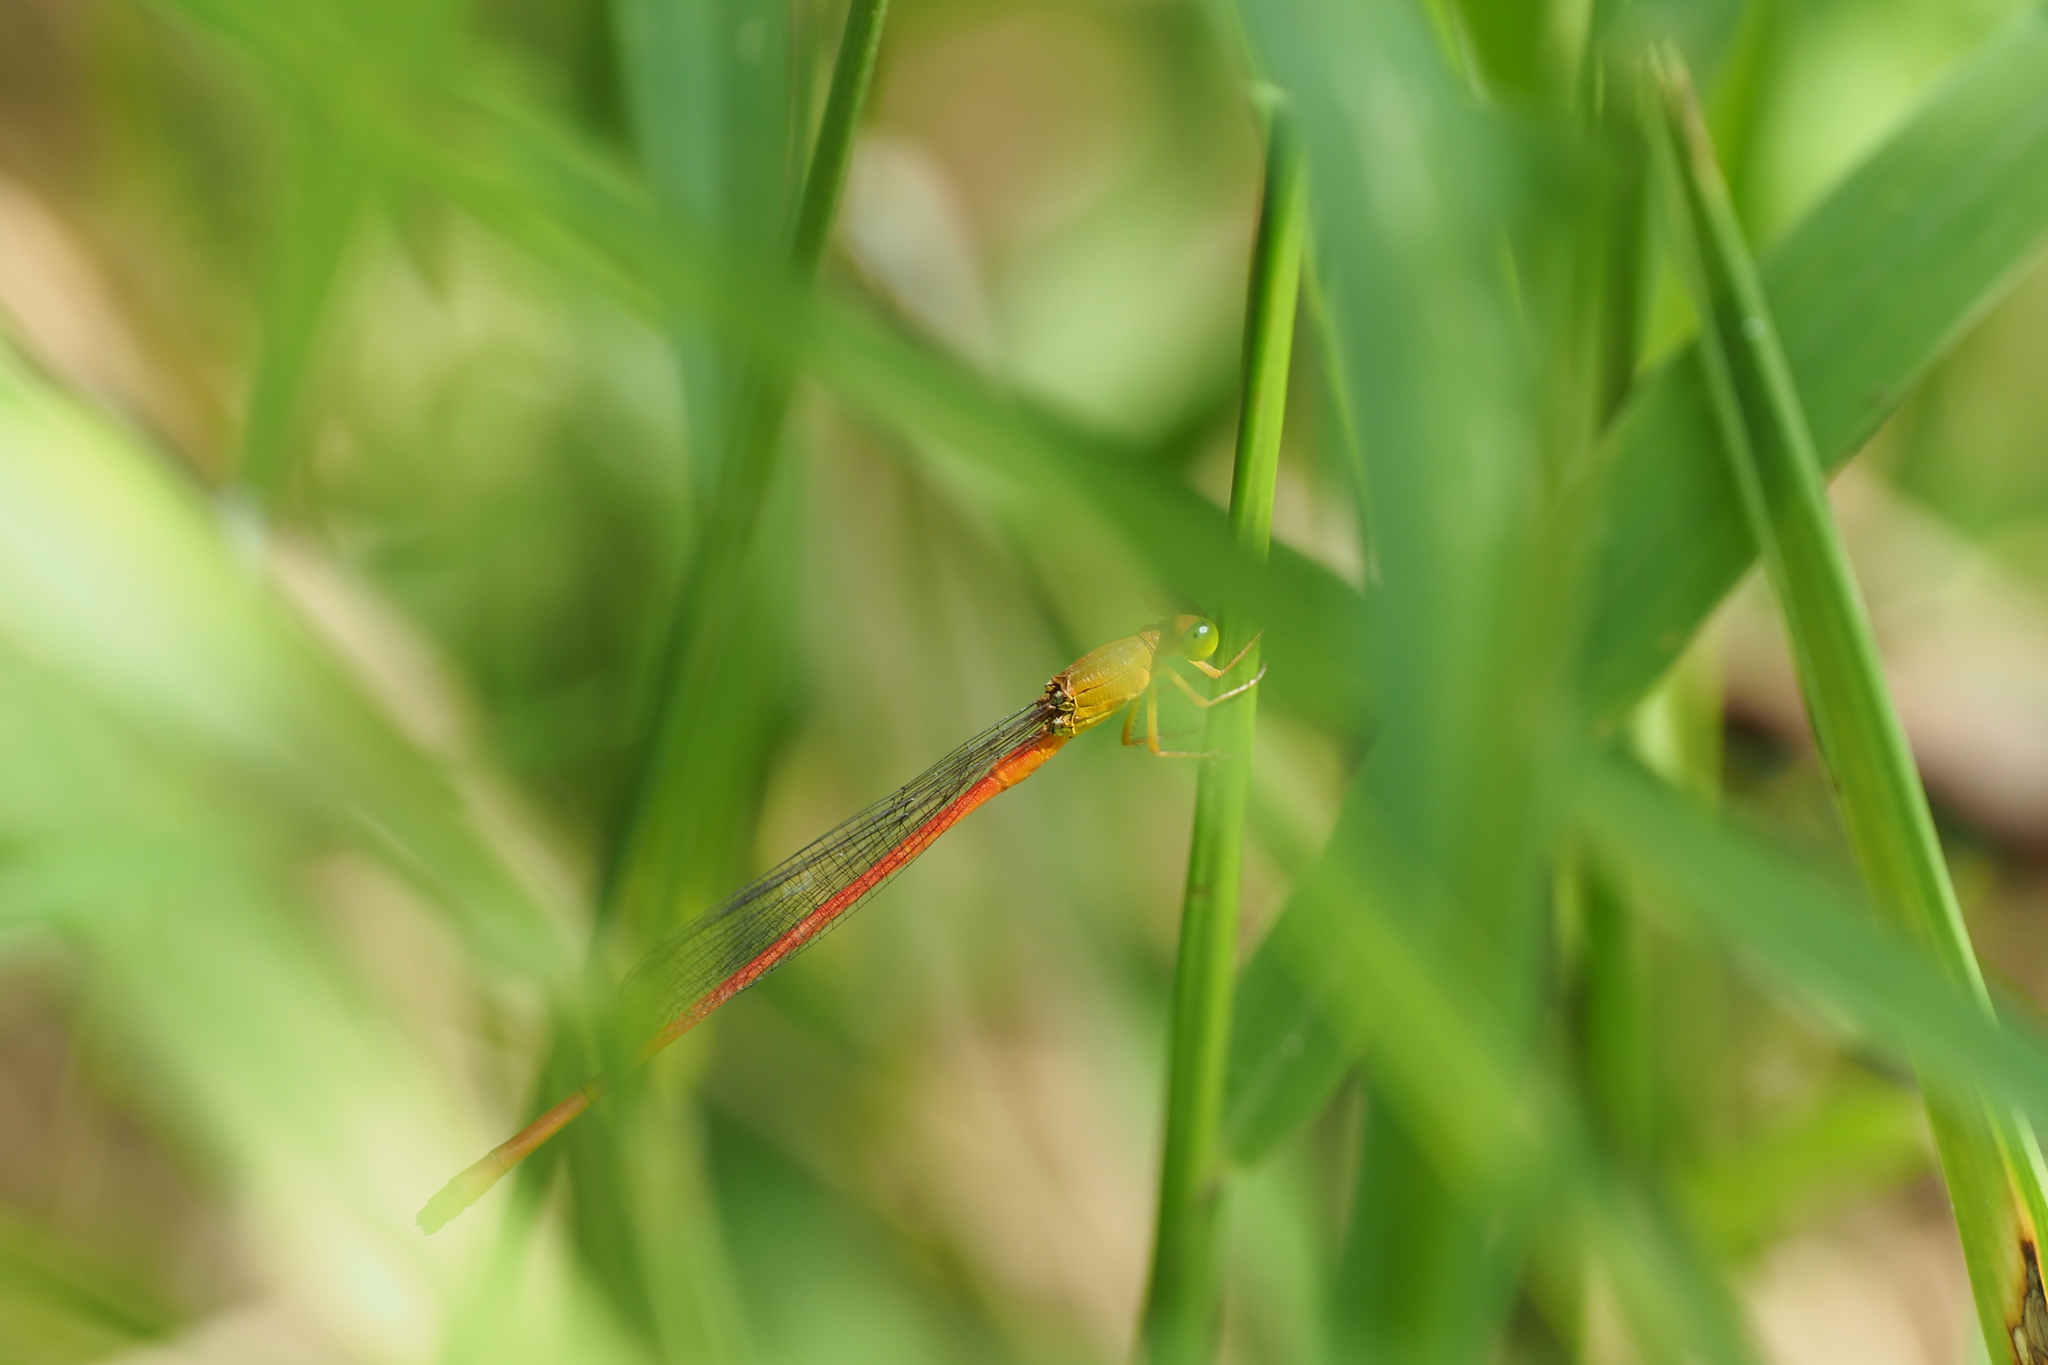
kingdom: Animalia
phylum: Arthropoda
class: Insecta
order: Odonata
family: Coenagrionidae
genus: Ceriagrion
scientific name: Ceriagrion auranticum
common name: Orange-tailed sprite
